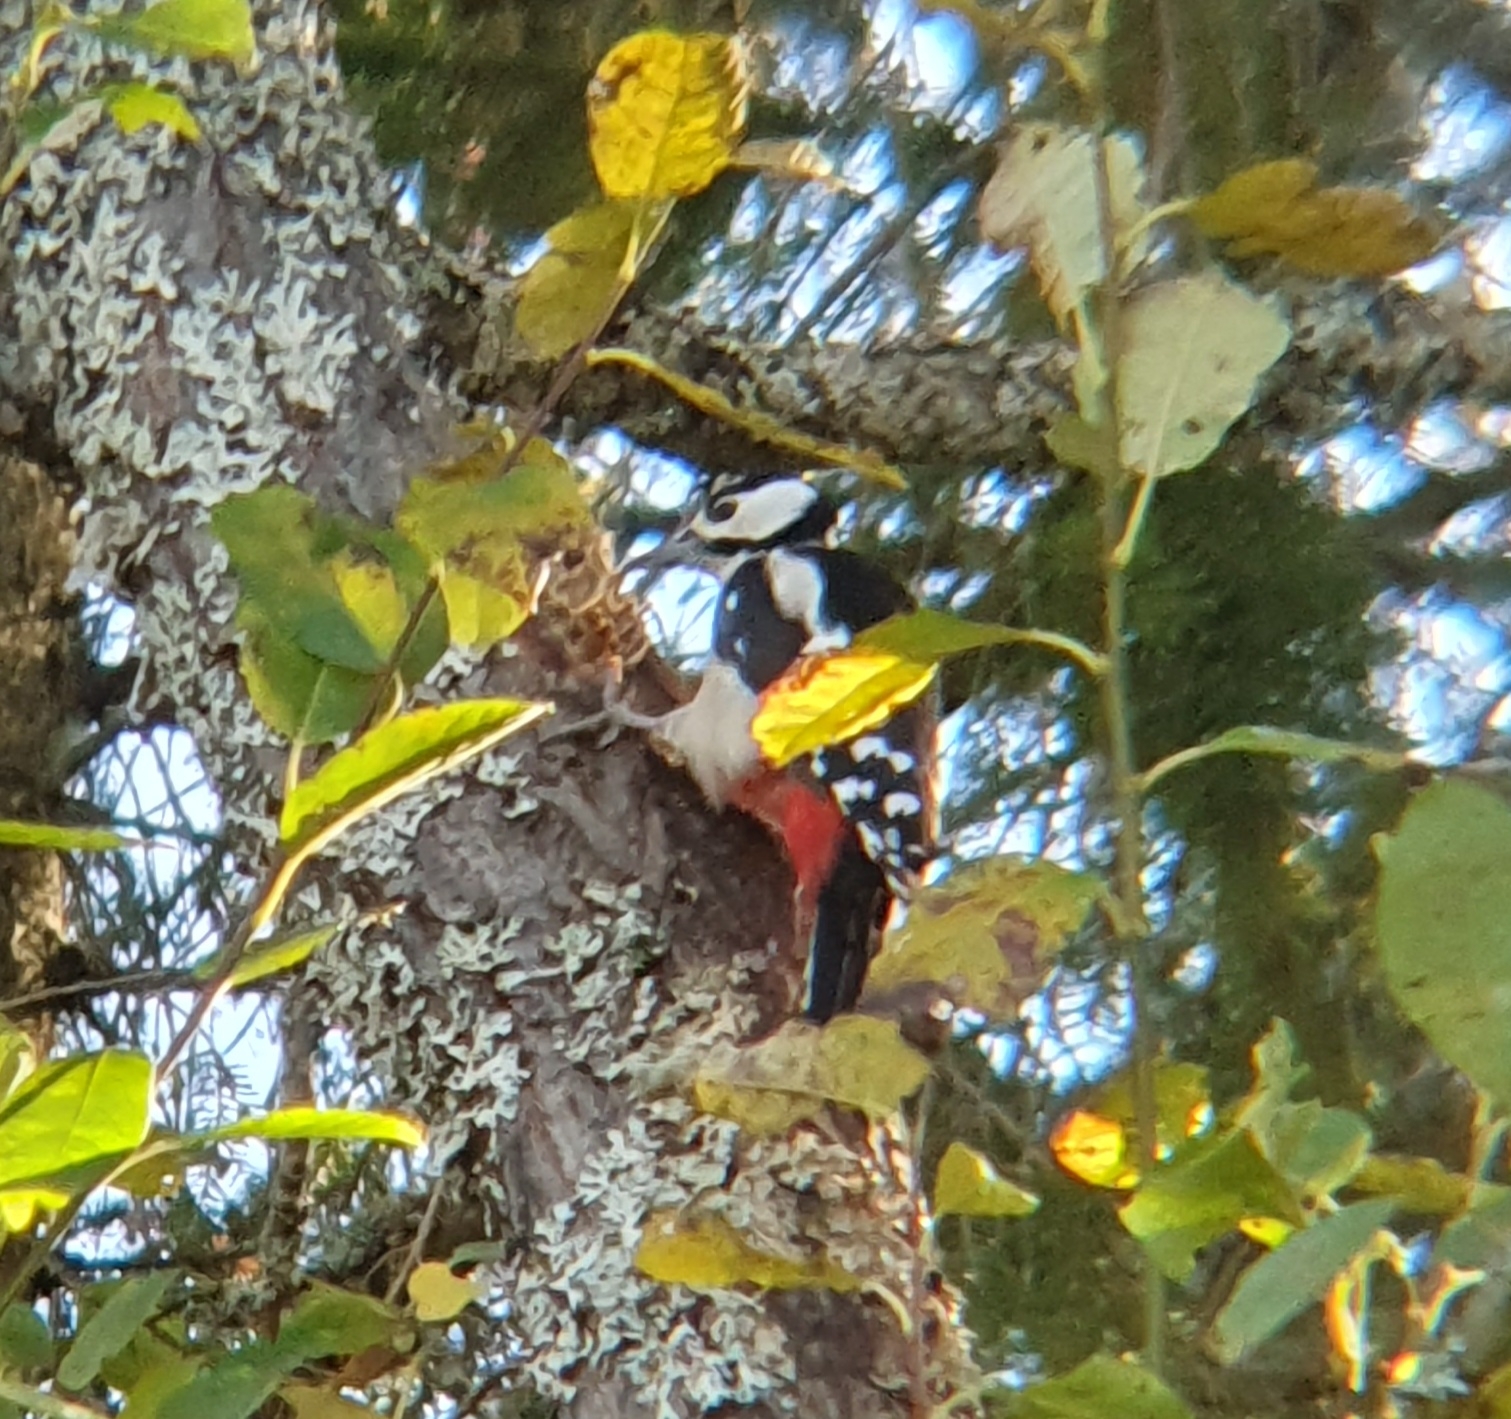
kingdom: Animalia
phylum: Chordata
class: Aves
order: Piciformes
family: Picidae
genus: Dendrocopos
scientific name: Dendrocopos major
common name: Great spotted woodpecker
